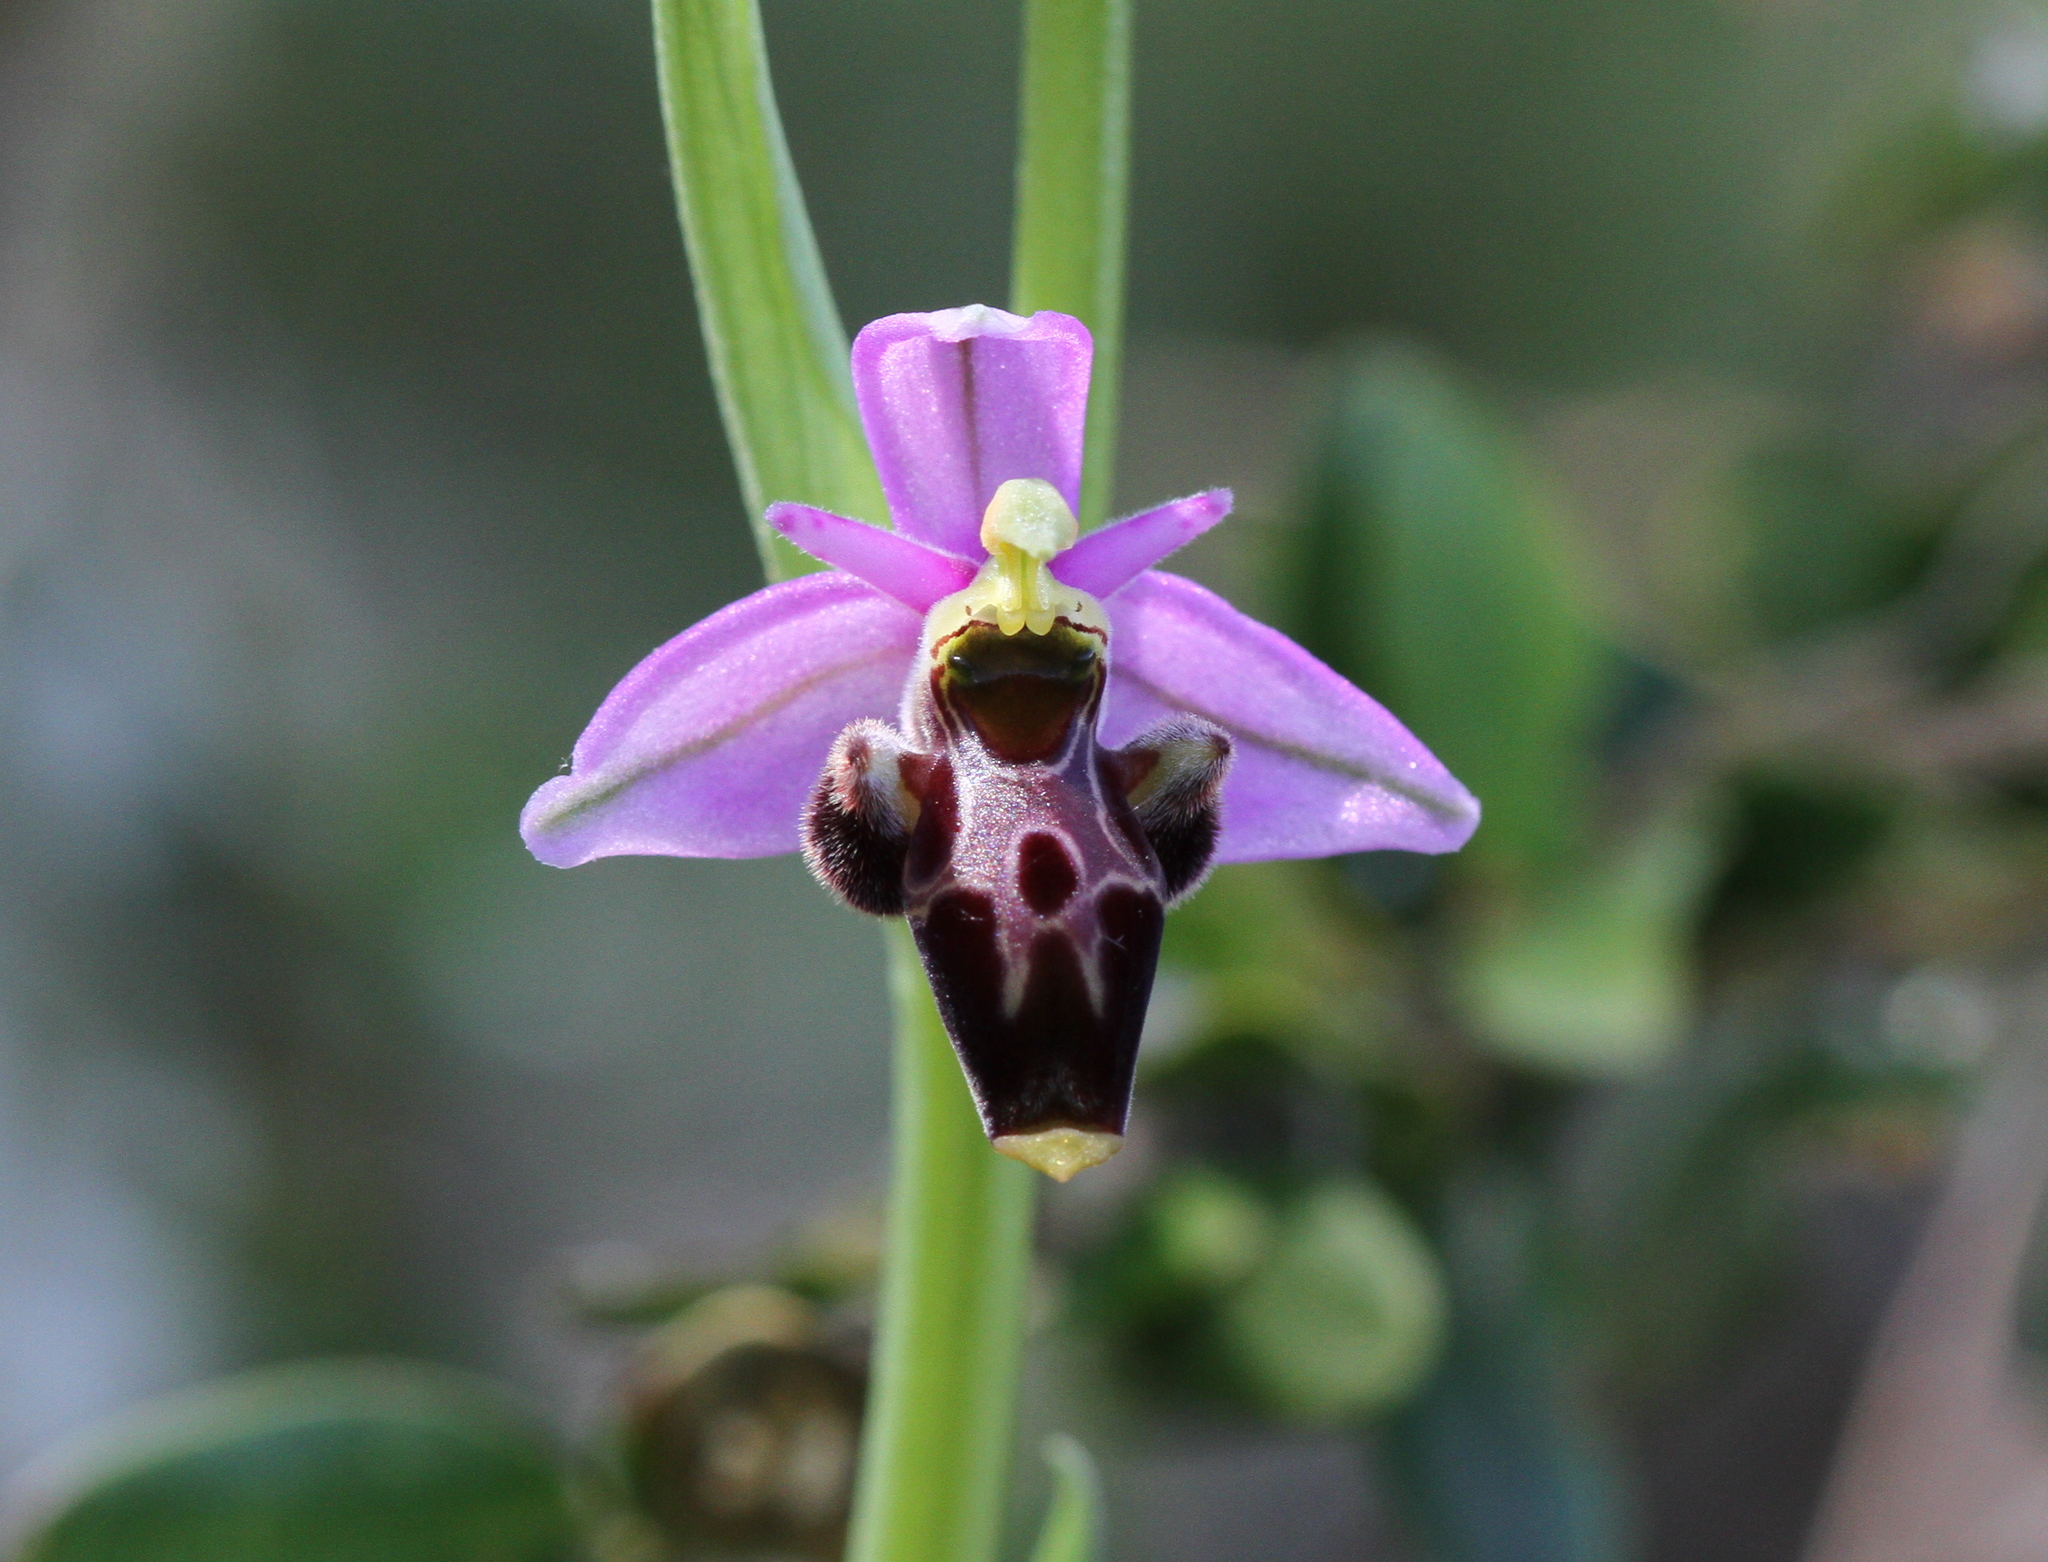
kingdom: Plantae
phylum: Tracheophyta
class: Liliopsida
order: Asparagales
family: Orchidaceae
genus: Ophrys
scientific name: Ophrys scolopax
